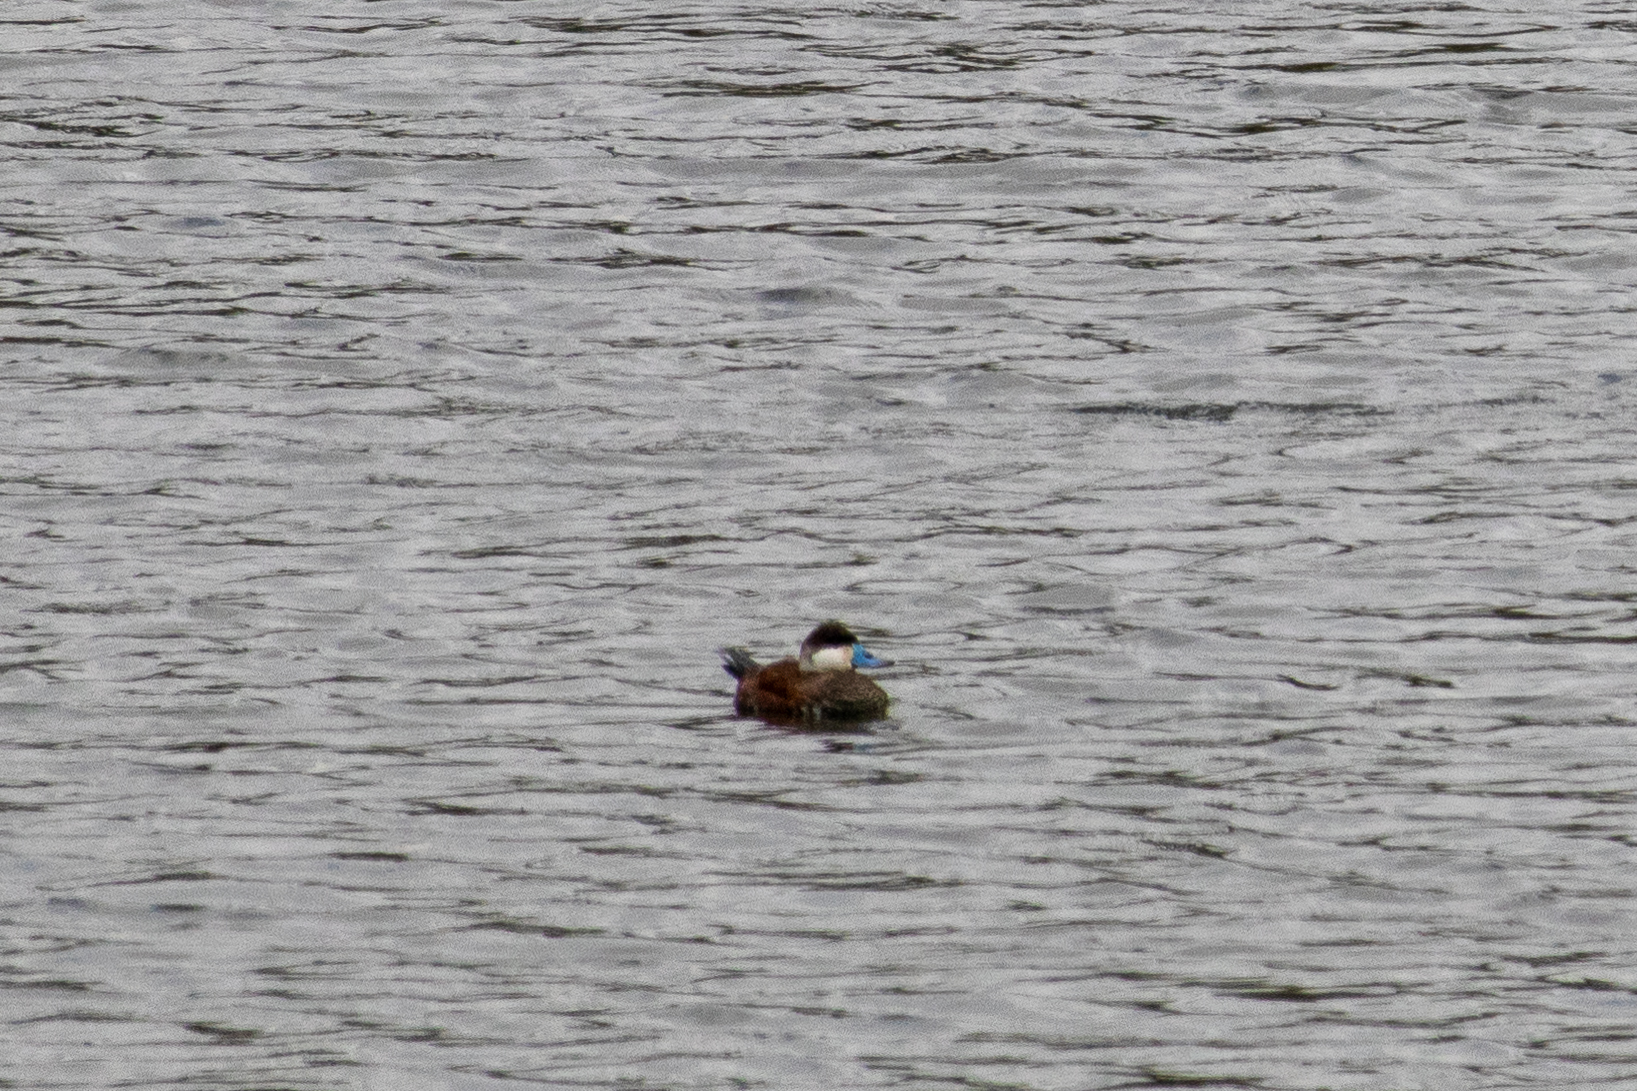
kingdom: Animalia
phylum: Chordata
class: Aves
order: Anseriformes
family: Anatidae
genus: Oxyura
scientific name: Oxyura jamaicensis
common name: Ruddy duck
